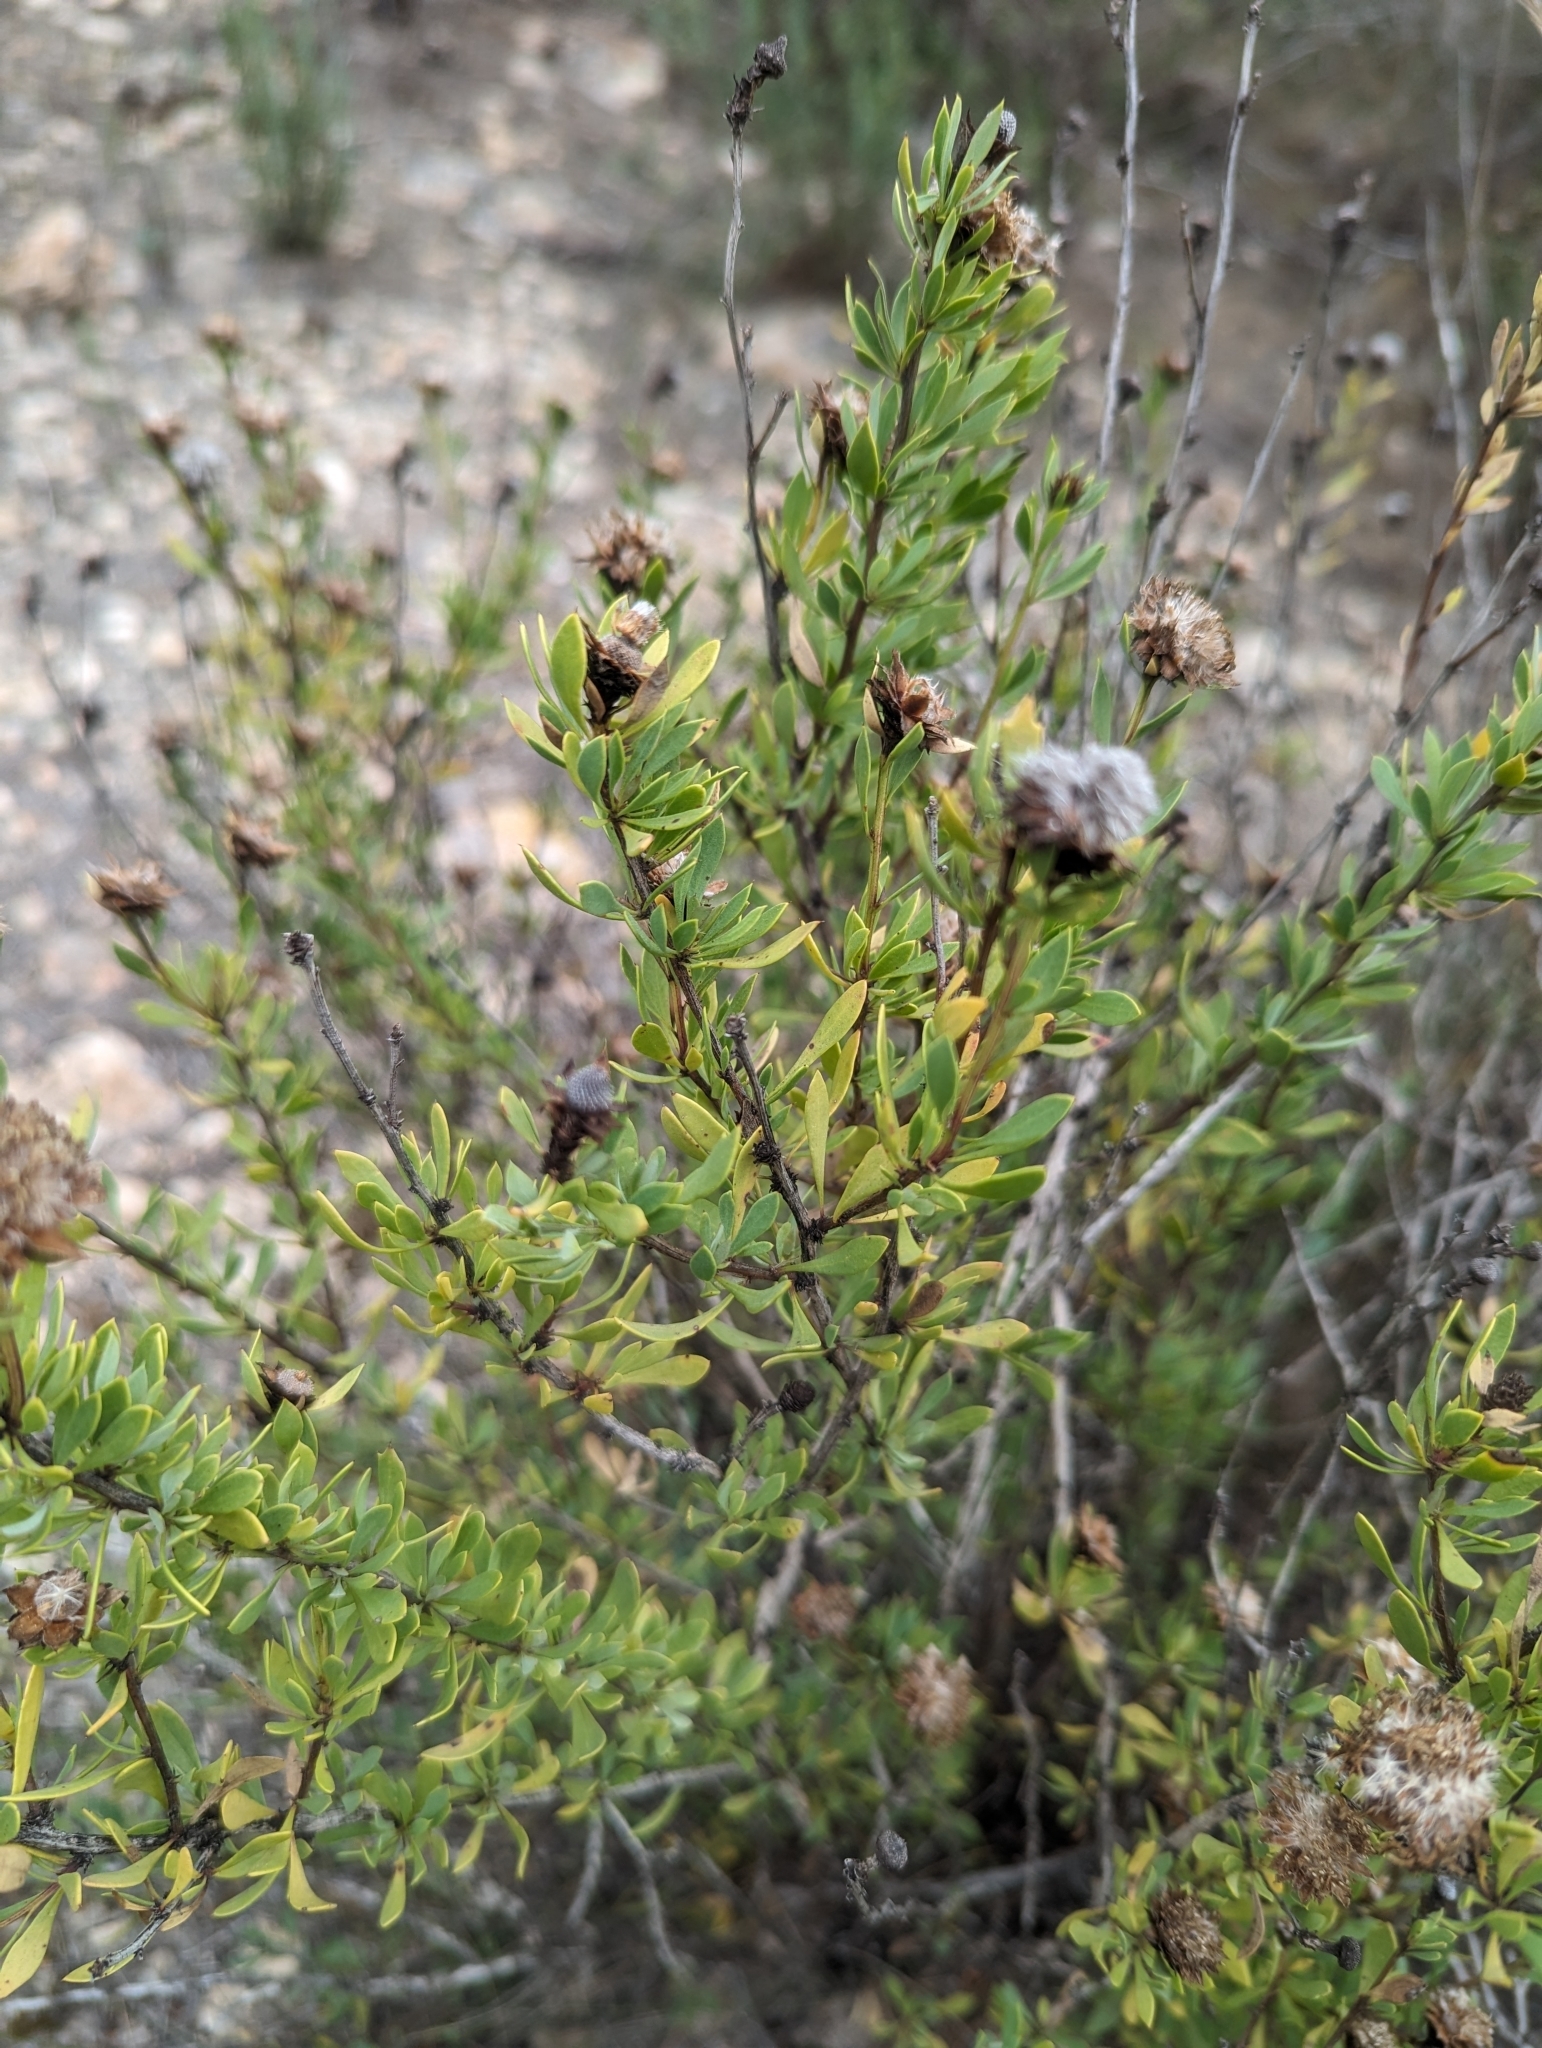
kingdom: Plantae
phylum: Tracheophyta
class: Magnoliopsida
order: Lamiales
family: Plantaginaceae
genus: Globularia
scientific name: Globularia alypum
